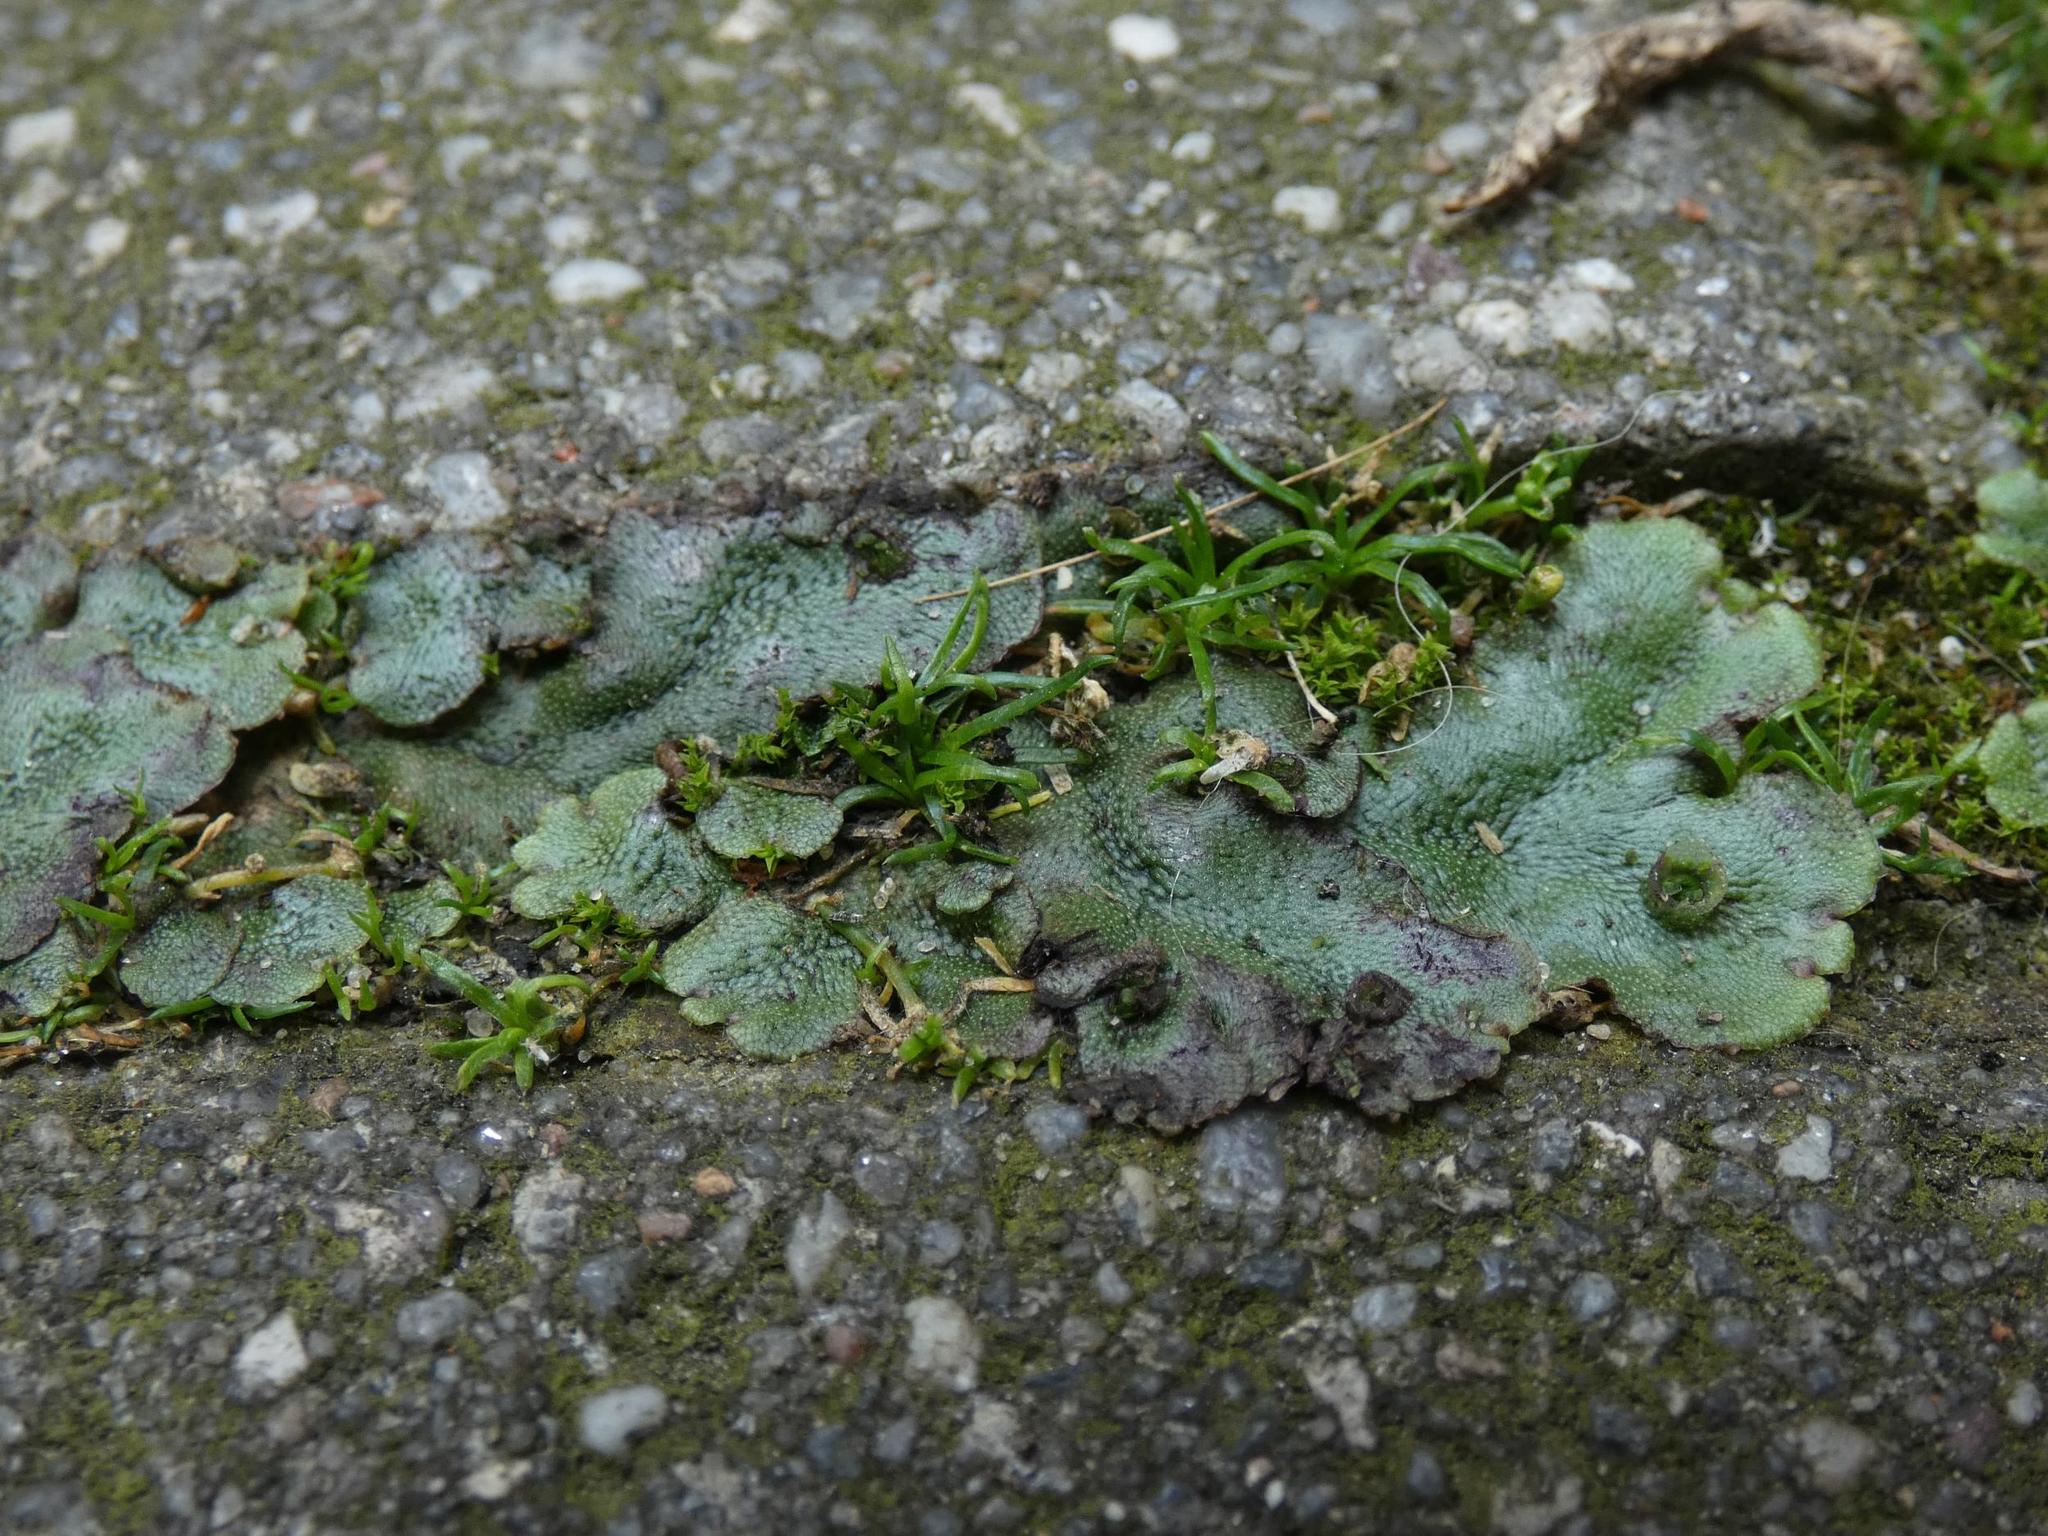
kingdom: Plantae
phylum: Marchantiophyta
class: Marchantiopsida
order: Marchantiales
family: Marchantiaceae
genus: Marchantia
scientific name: Marchantia polymorpha
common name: Common liverwort
